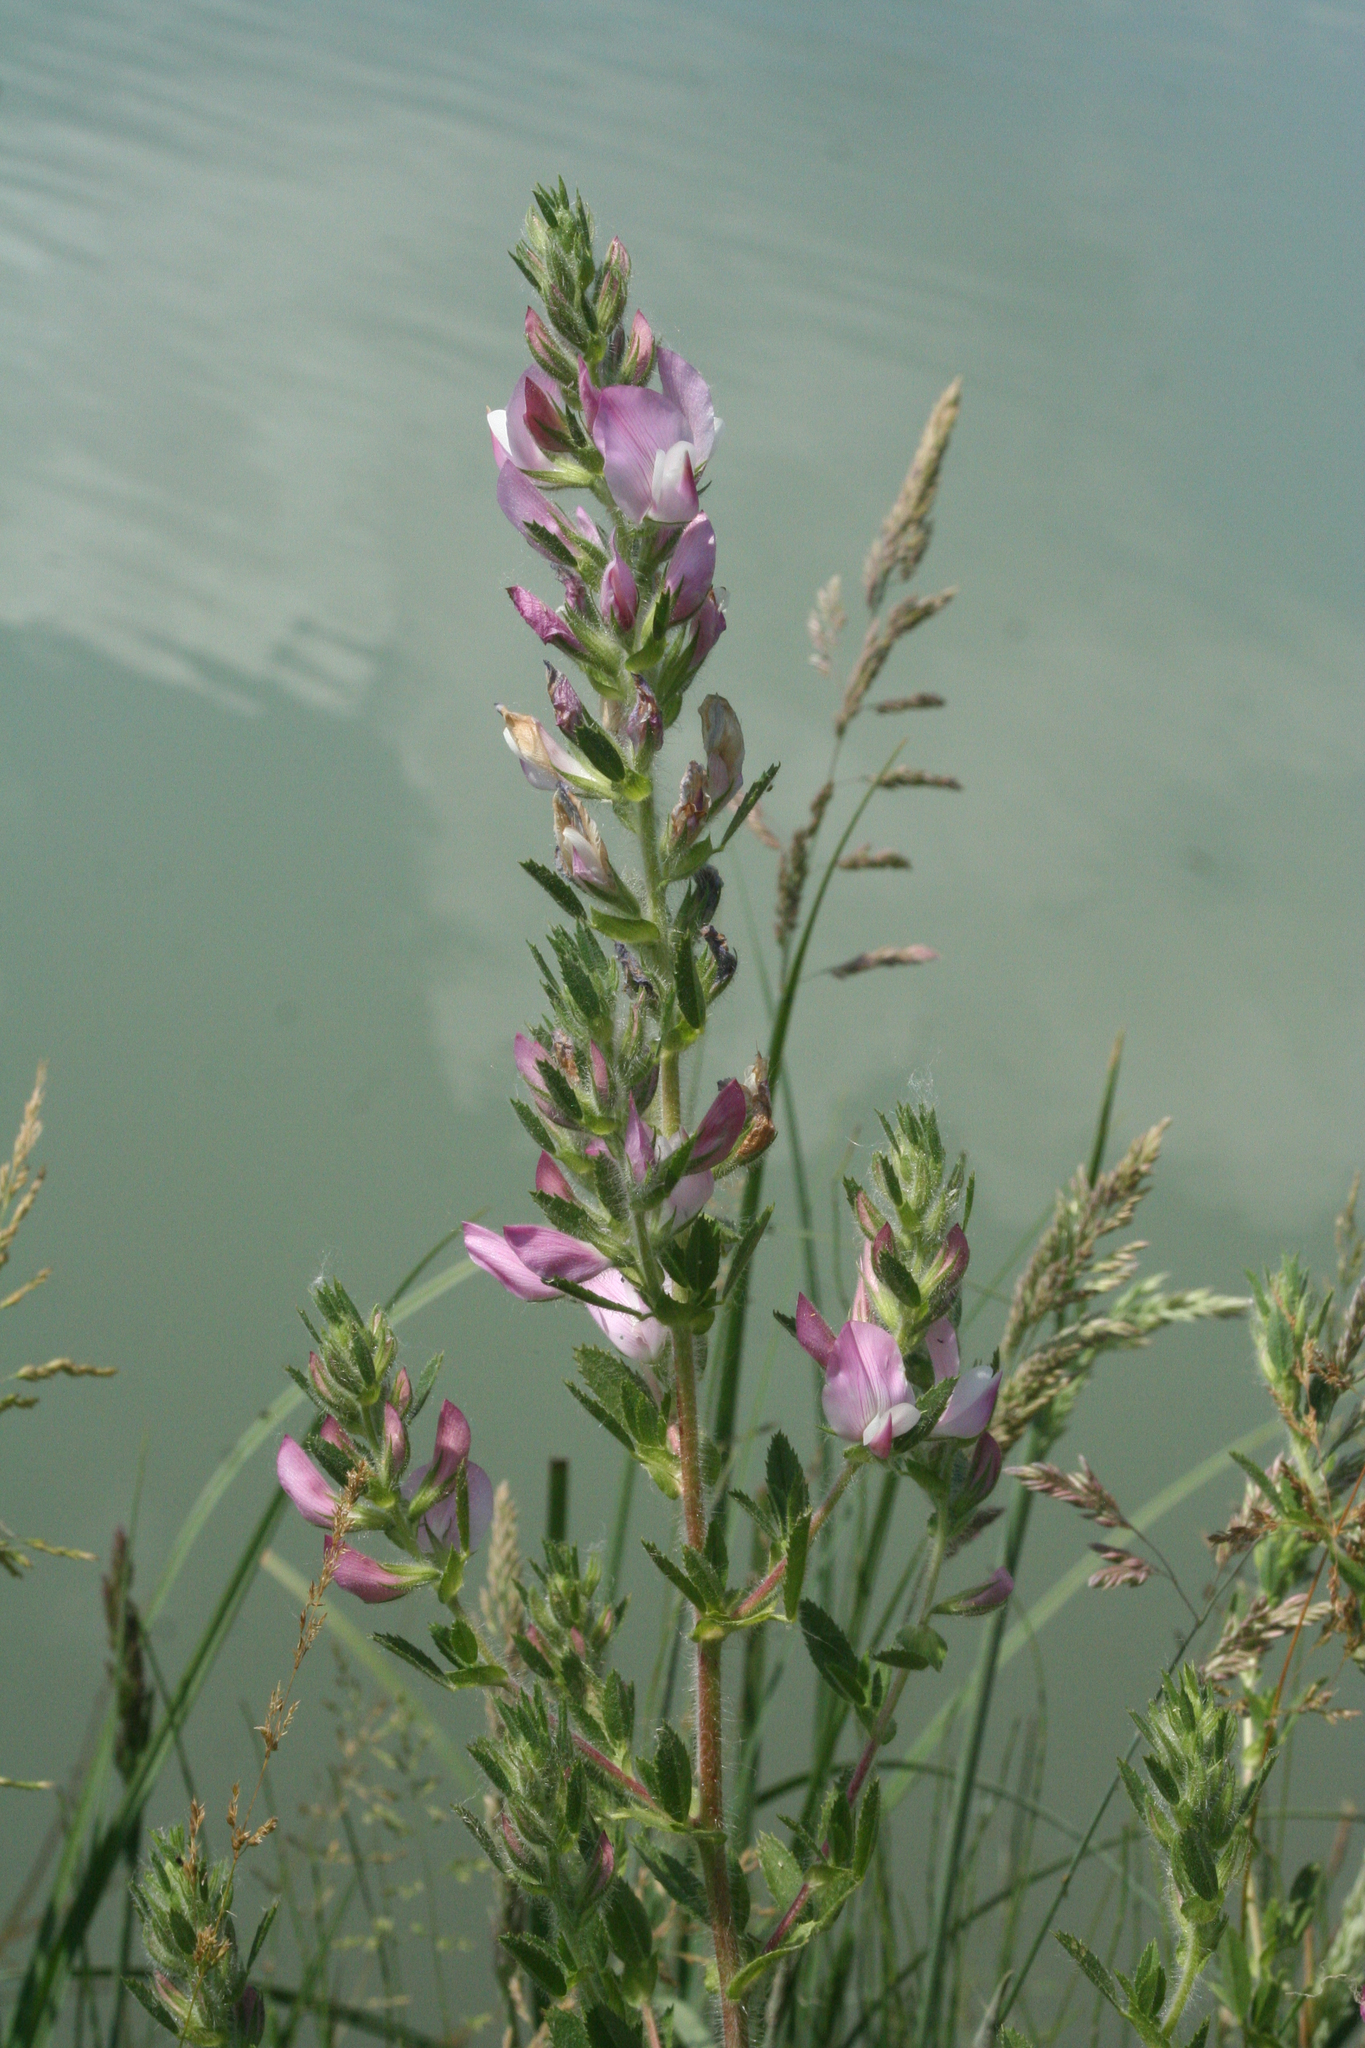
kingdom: Plantae
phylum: Tracheophyta
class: Magnoliopsida
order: Fabales
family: Fabaceae
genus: Ononis
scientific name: Ononis arvensis
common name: Field restharrow
